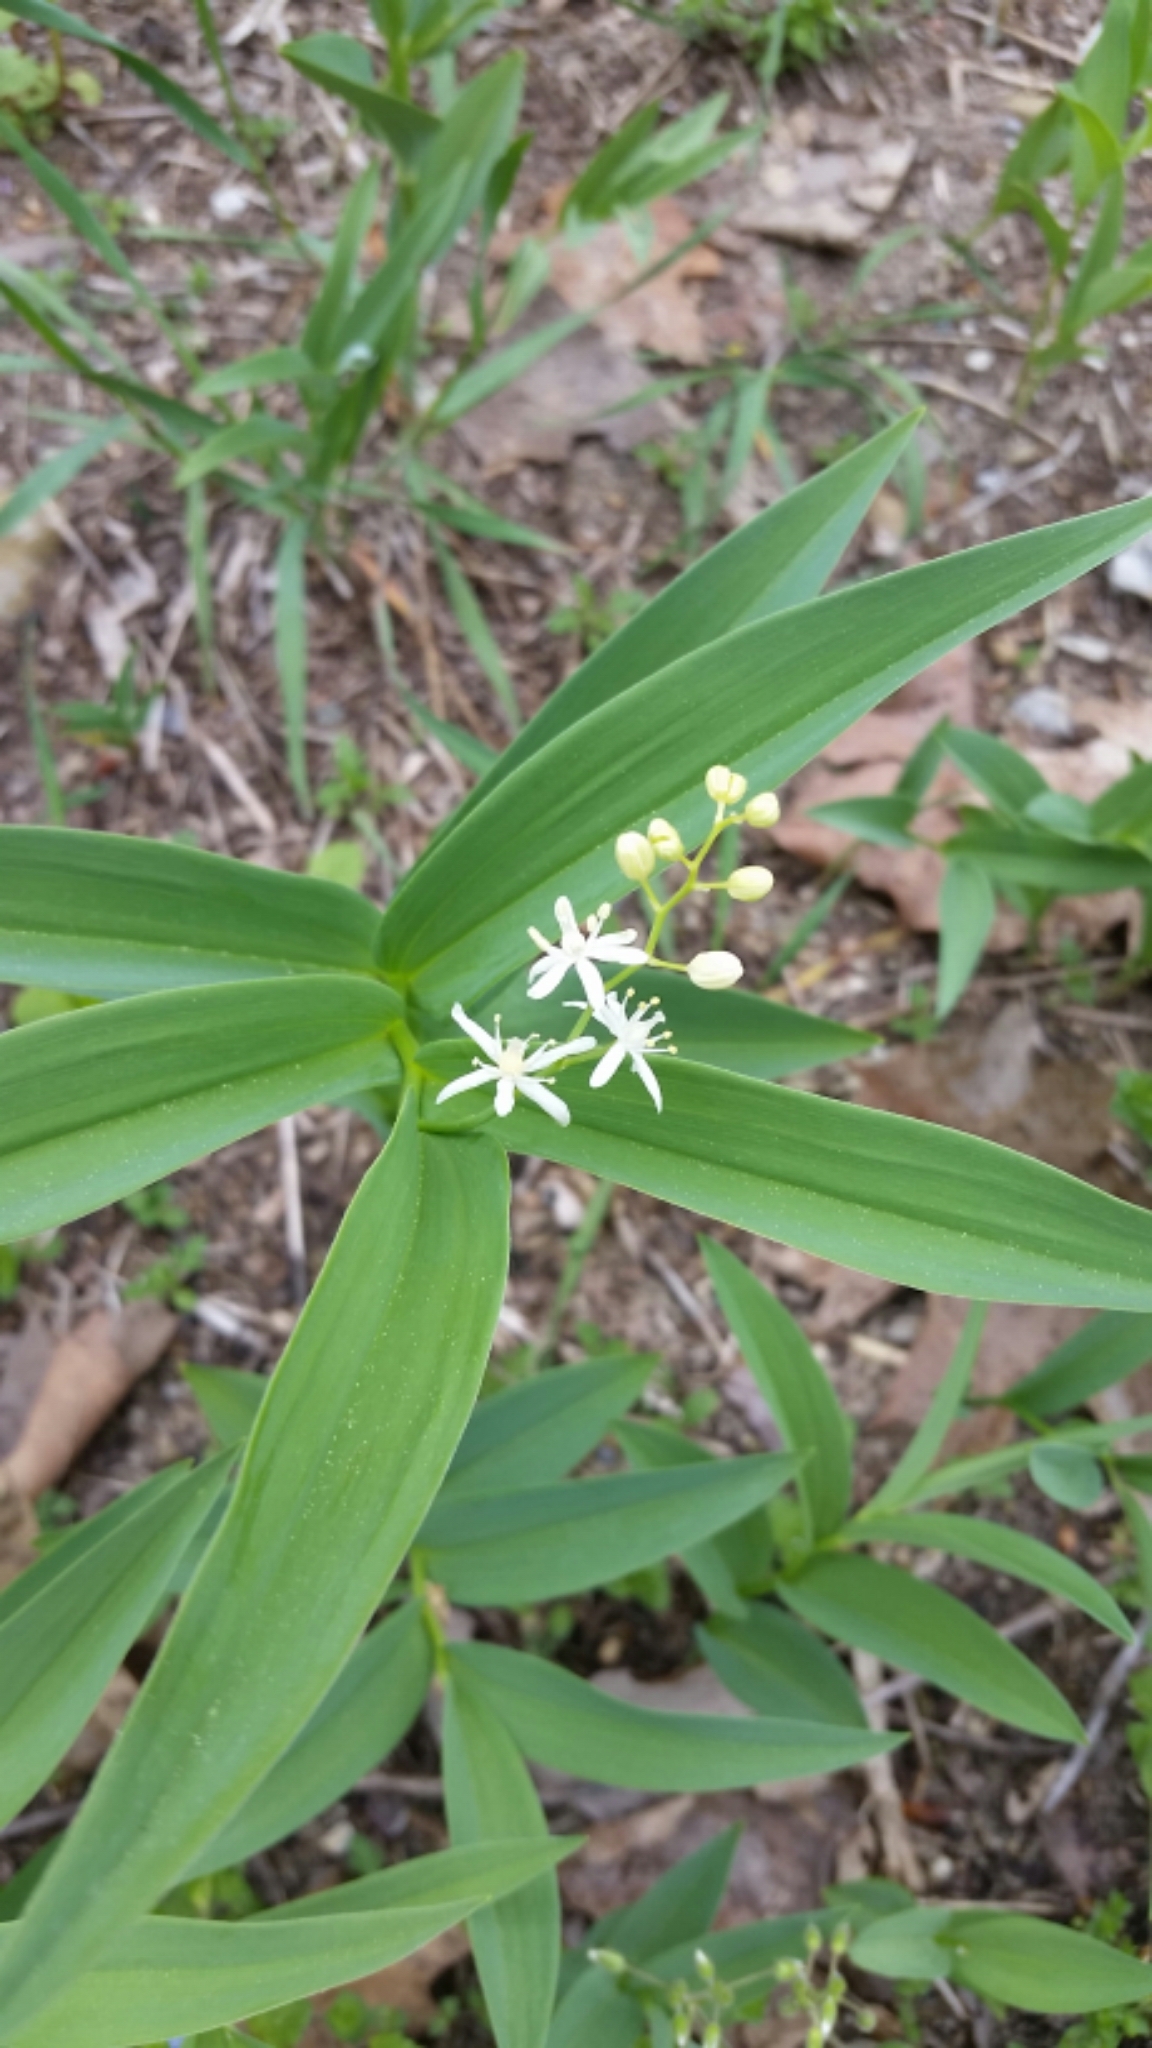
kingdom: Plantae
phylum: Tracheophyta
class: Liliopsida
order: Asparagales
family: Asparagaceae
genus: Maianthemum
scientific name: Maianthemum stellatum
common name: Little false solomon's seal
